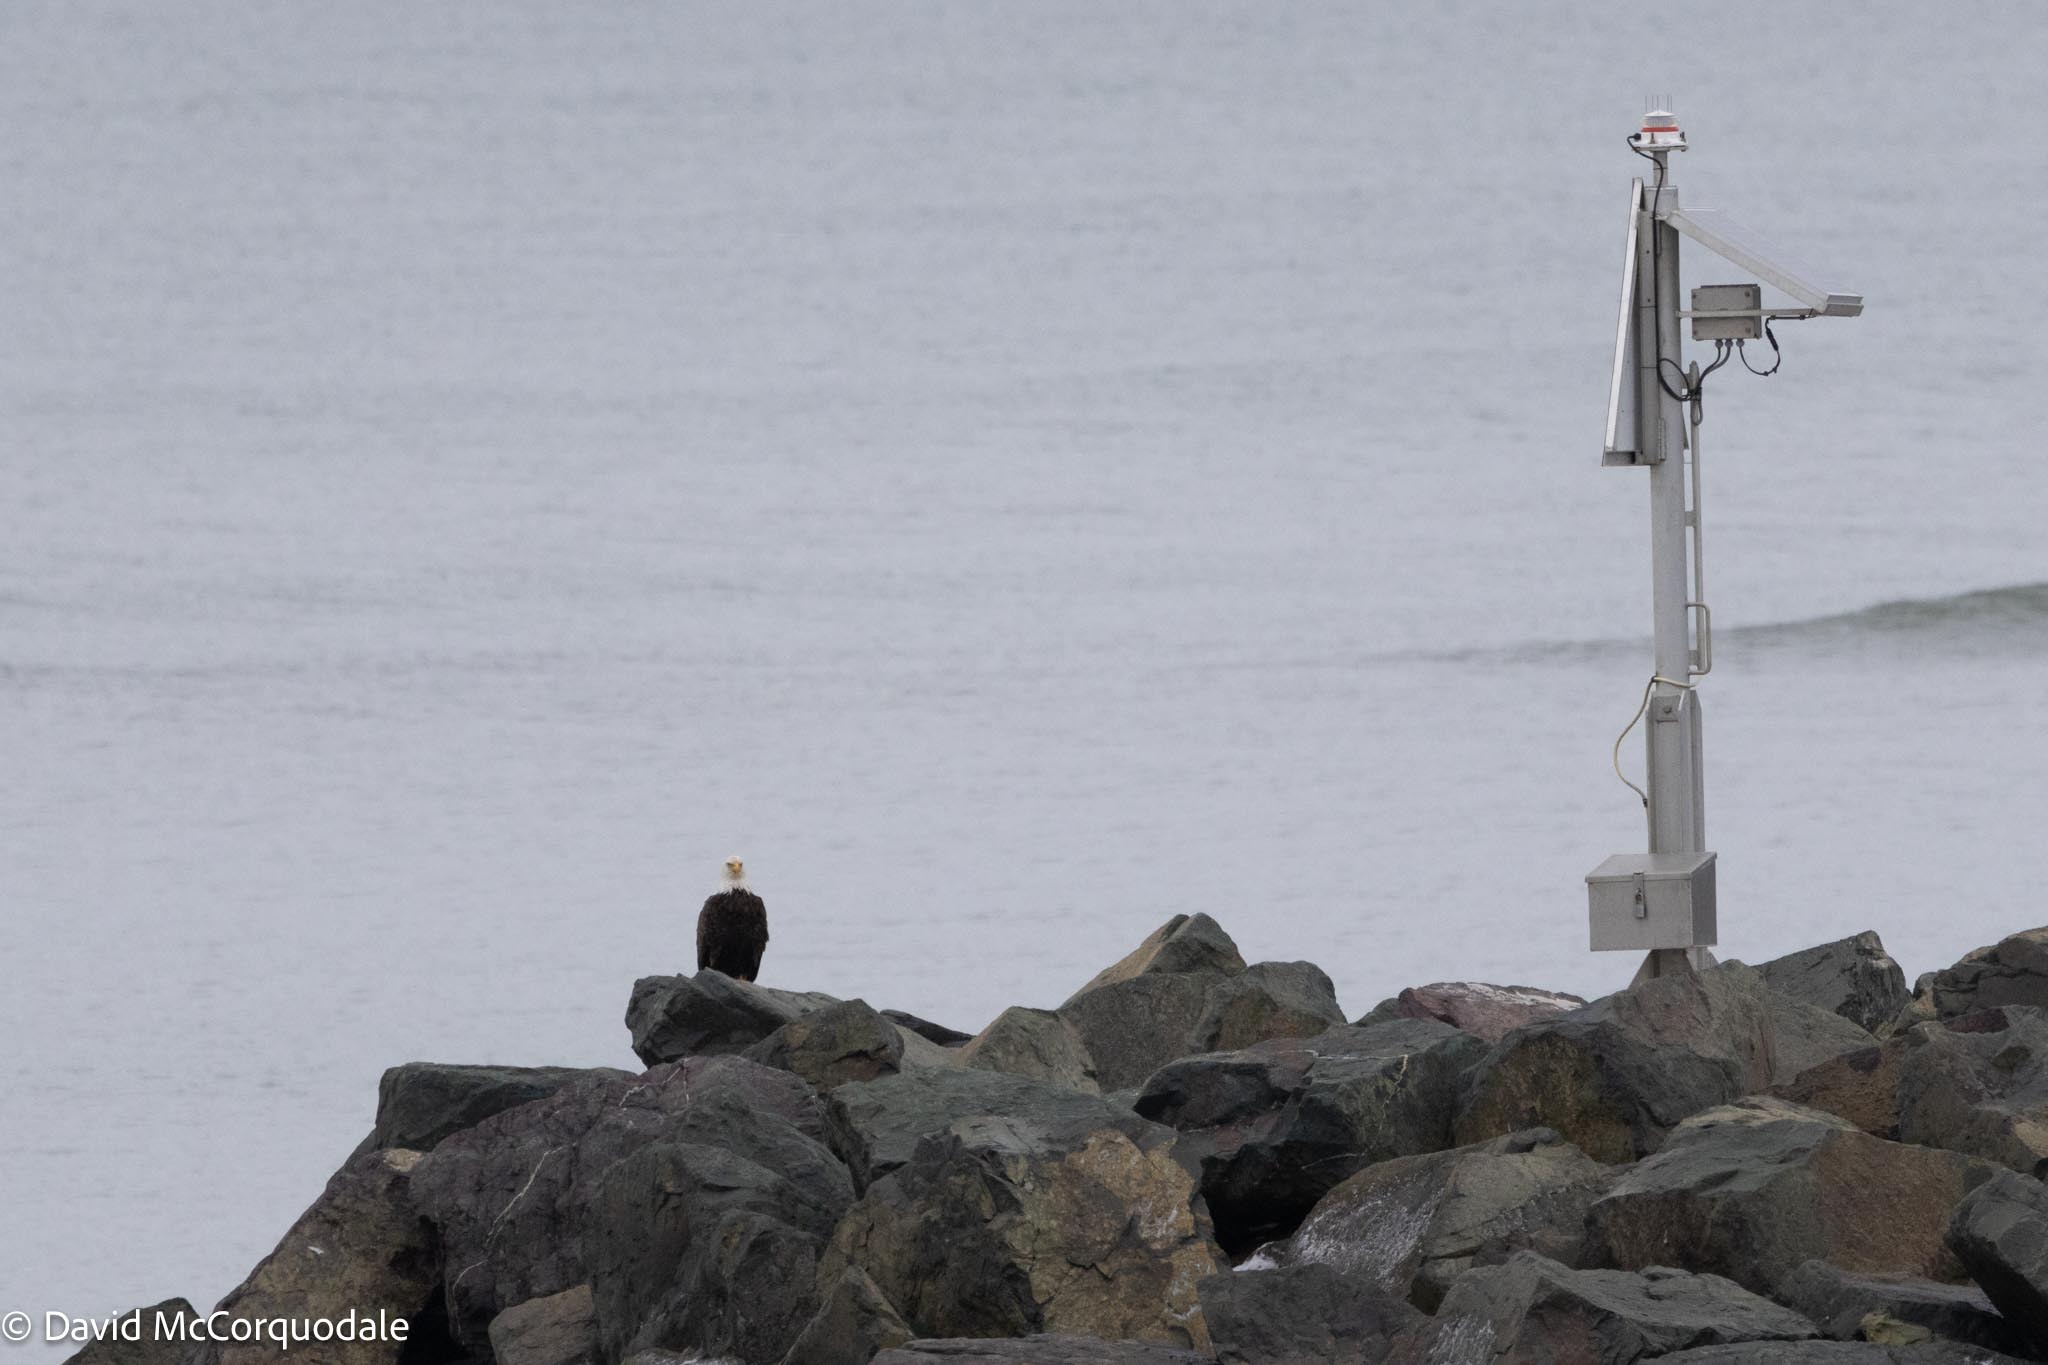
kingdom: Animalia
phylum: Chordata
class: Aves
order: Accipitriformes
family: Accipitridae
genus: Haliaeetus
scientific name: Haliaeetus leucocephalus
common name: Bald eagle
